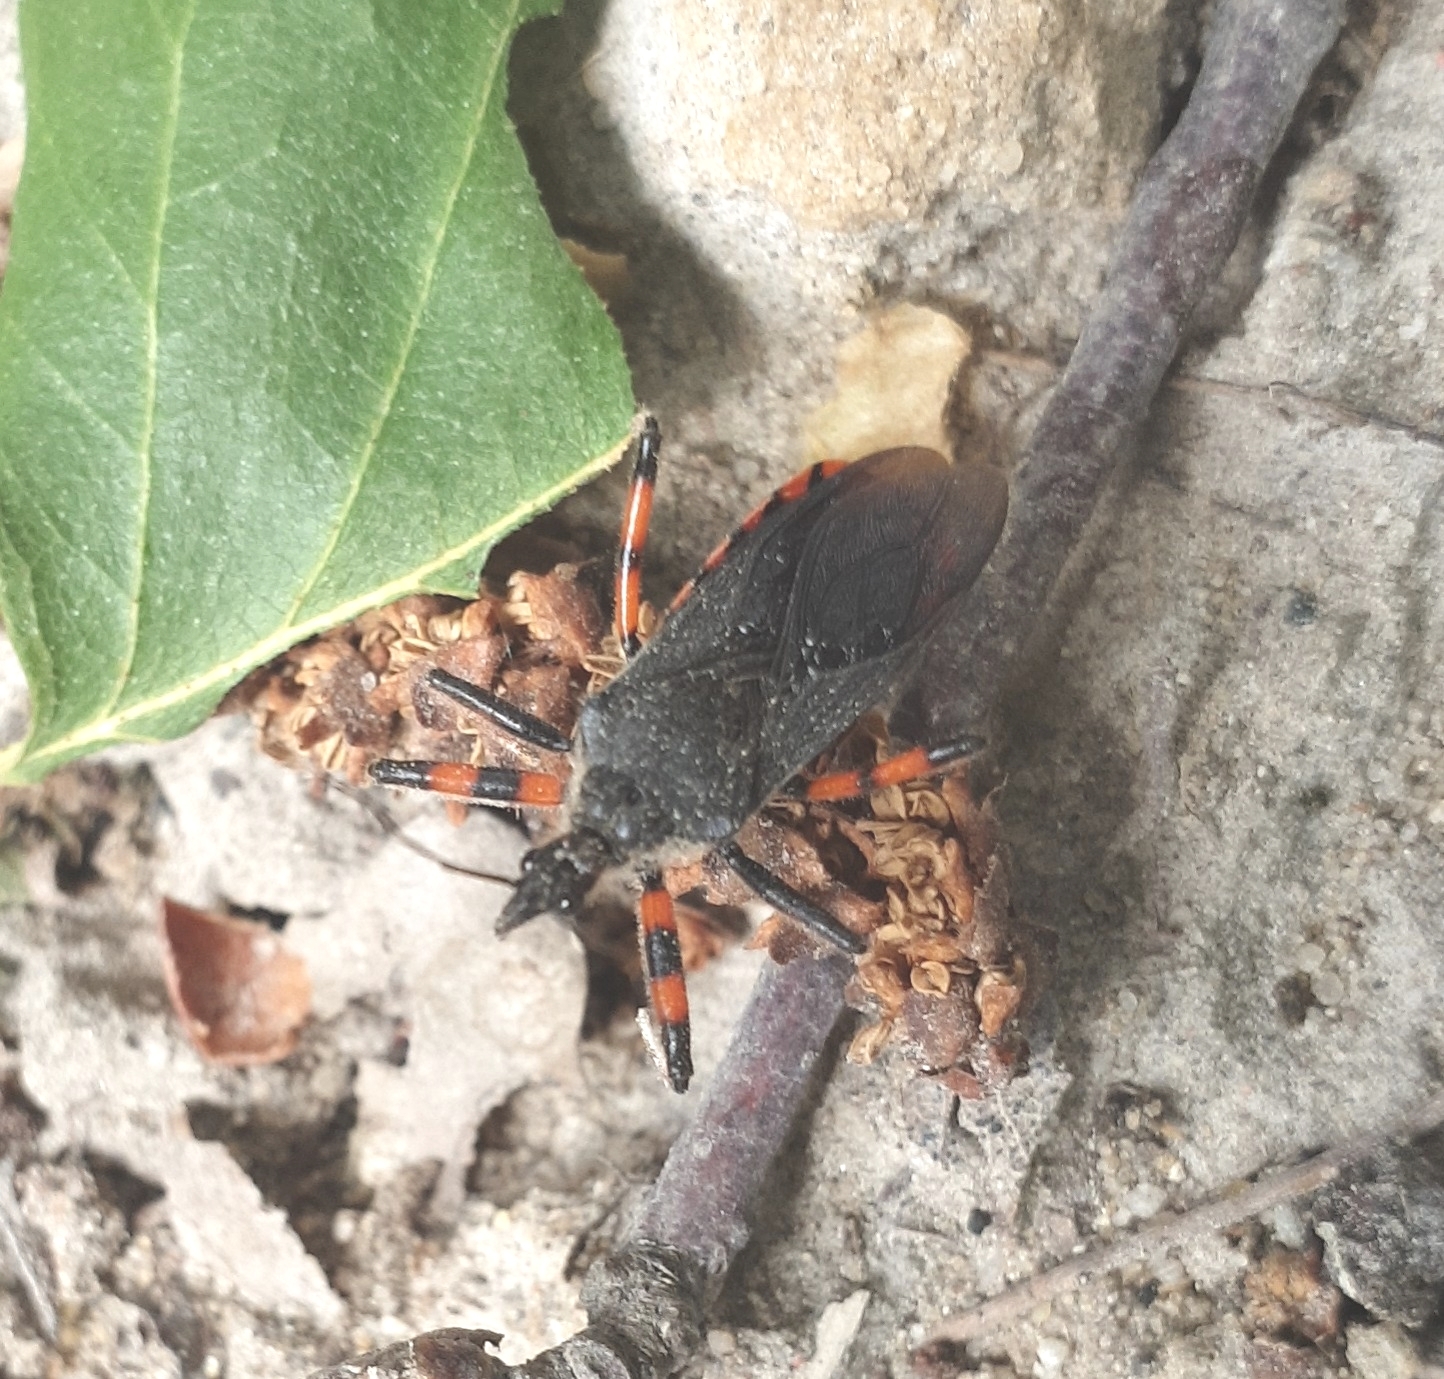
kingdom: Animalia
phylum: Arthropoda
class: Insecta
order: Hemiptera
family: Reduviidae
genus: Rhynocoris
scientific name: Rhynocoris annulatus
